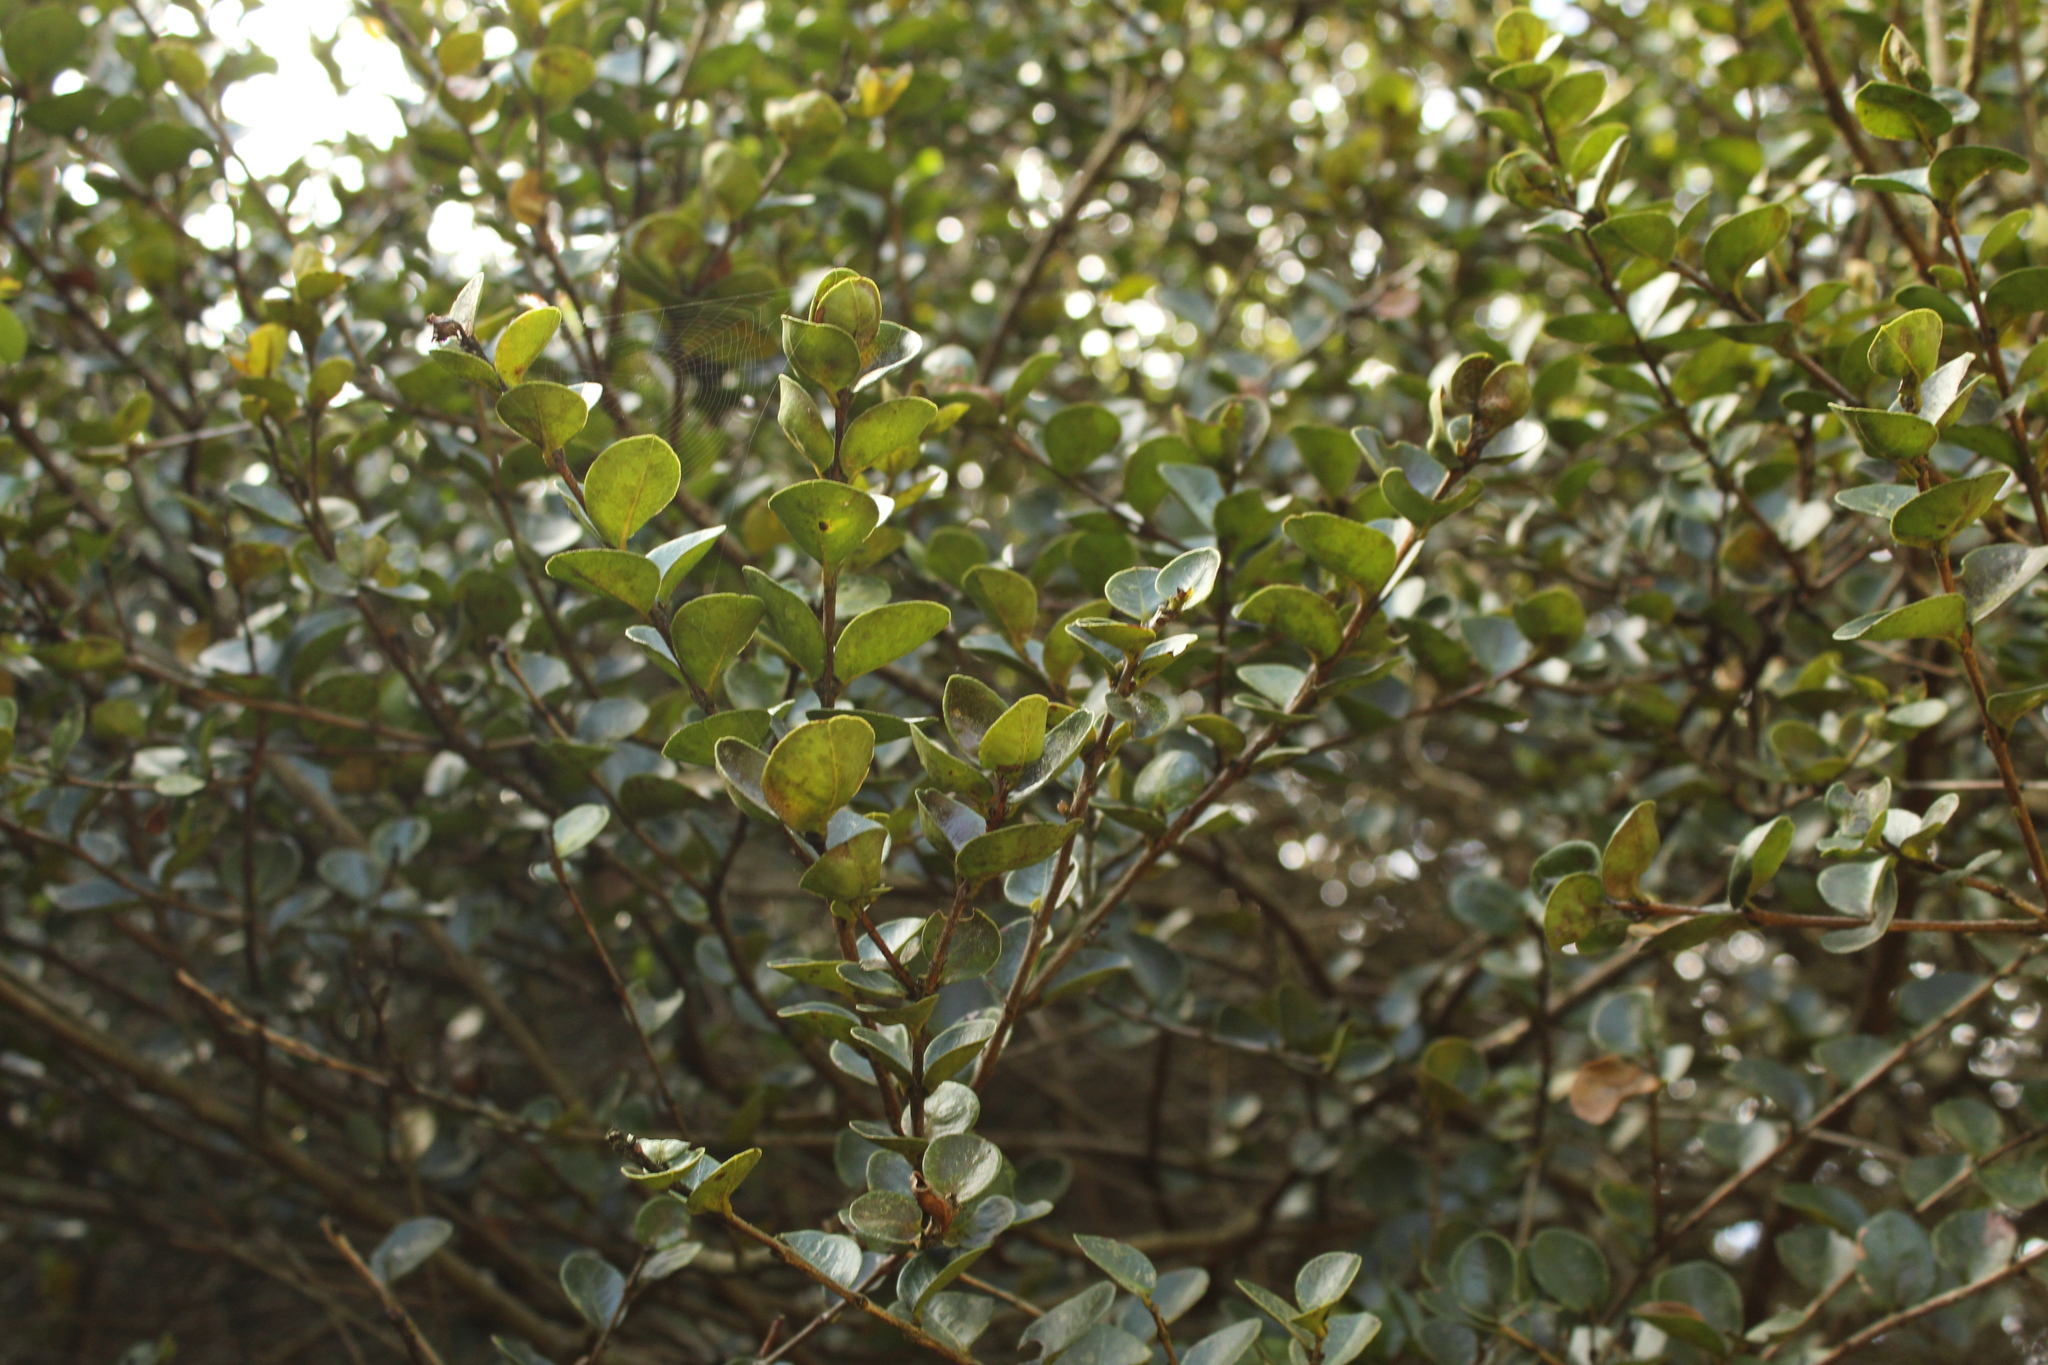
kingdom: Plantae
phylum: Tracheophyta
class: Magnoliopsida
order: Myrtales
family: Myrtaceae
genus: Myrcianthes
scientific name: Myrcianthes leucoxyla
